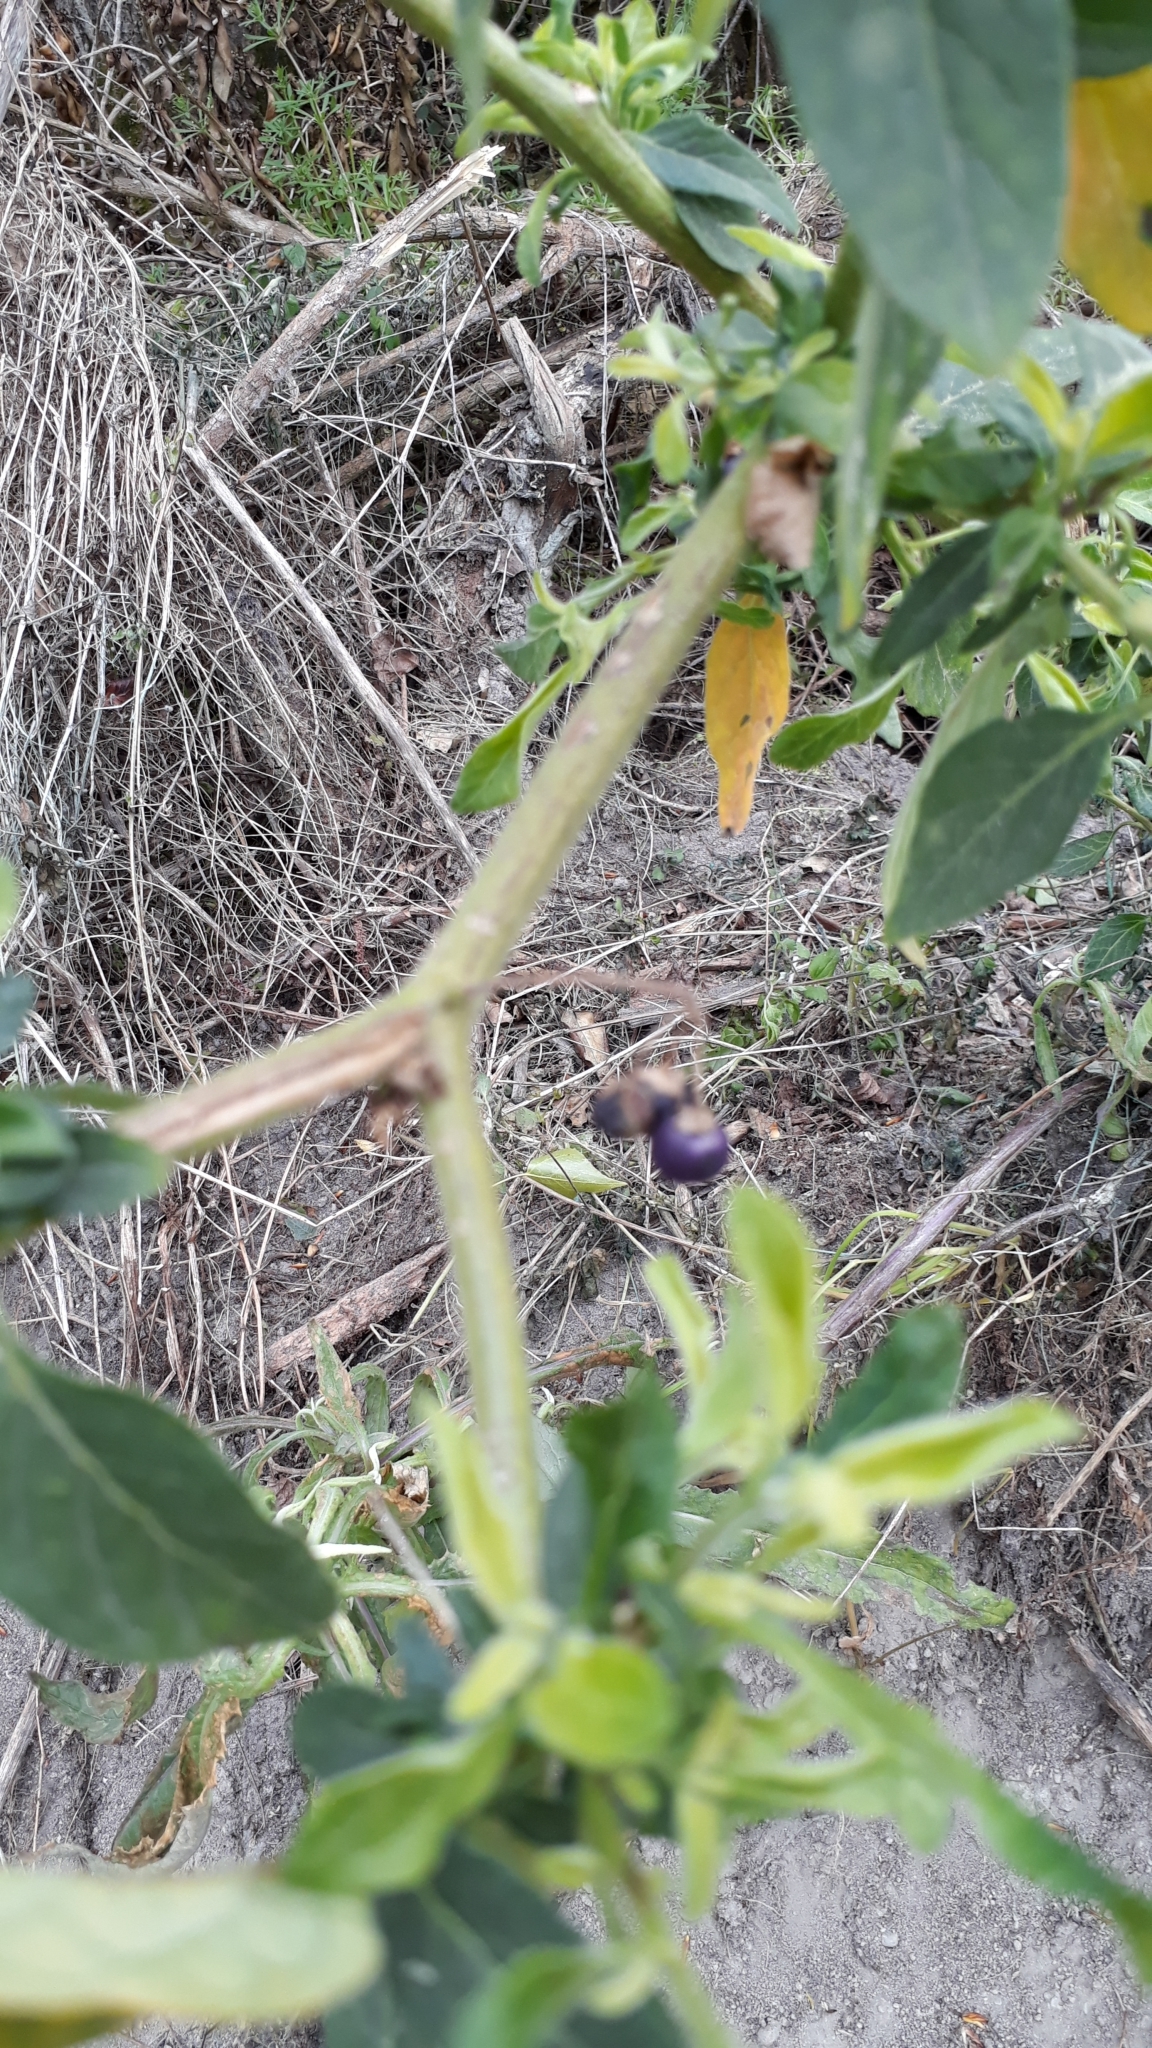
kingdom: Plantae
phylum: Tracheophyta
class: Magnoliopsida
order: Solanales
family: Solanaceae
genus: Solanum
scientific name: Solanum chenopodioides
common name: Tall nightshade
